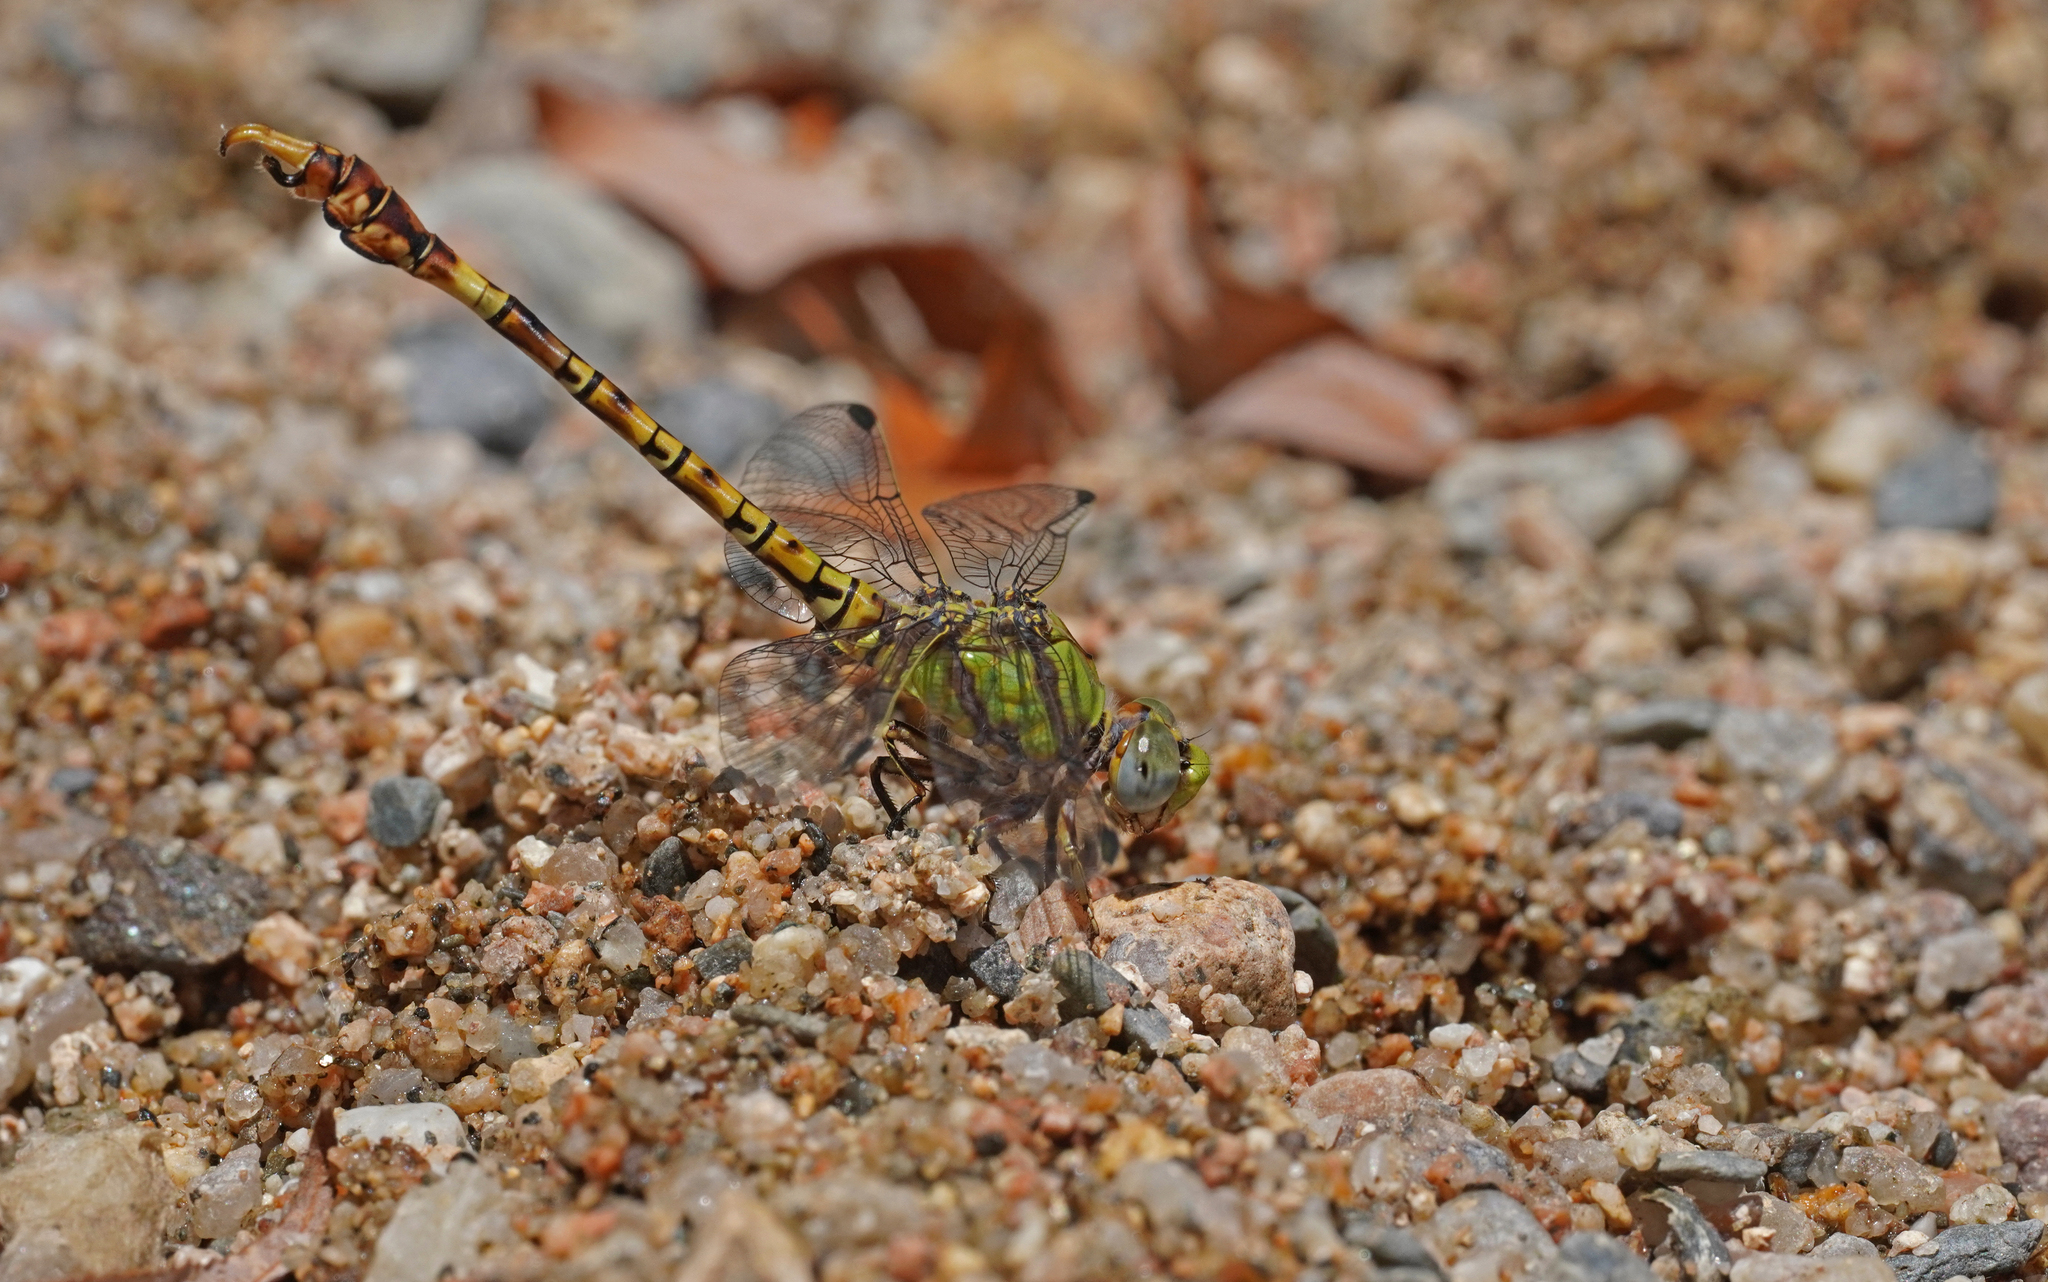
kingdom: Animalia
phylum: Arthropoda
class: Insecta
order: Odonata
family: Gomphidae
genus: Paragomphus
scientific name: Paragomphus genei
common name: Common hooktail
